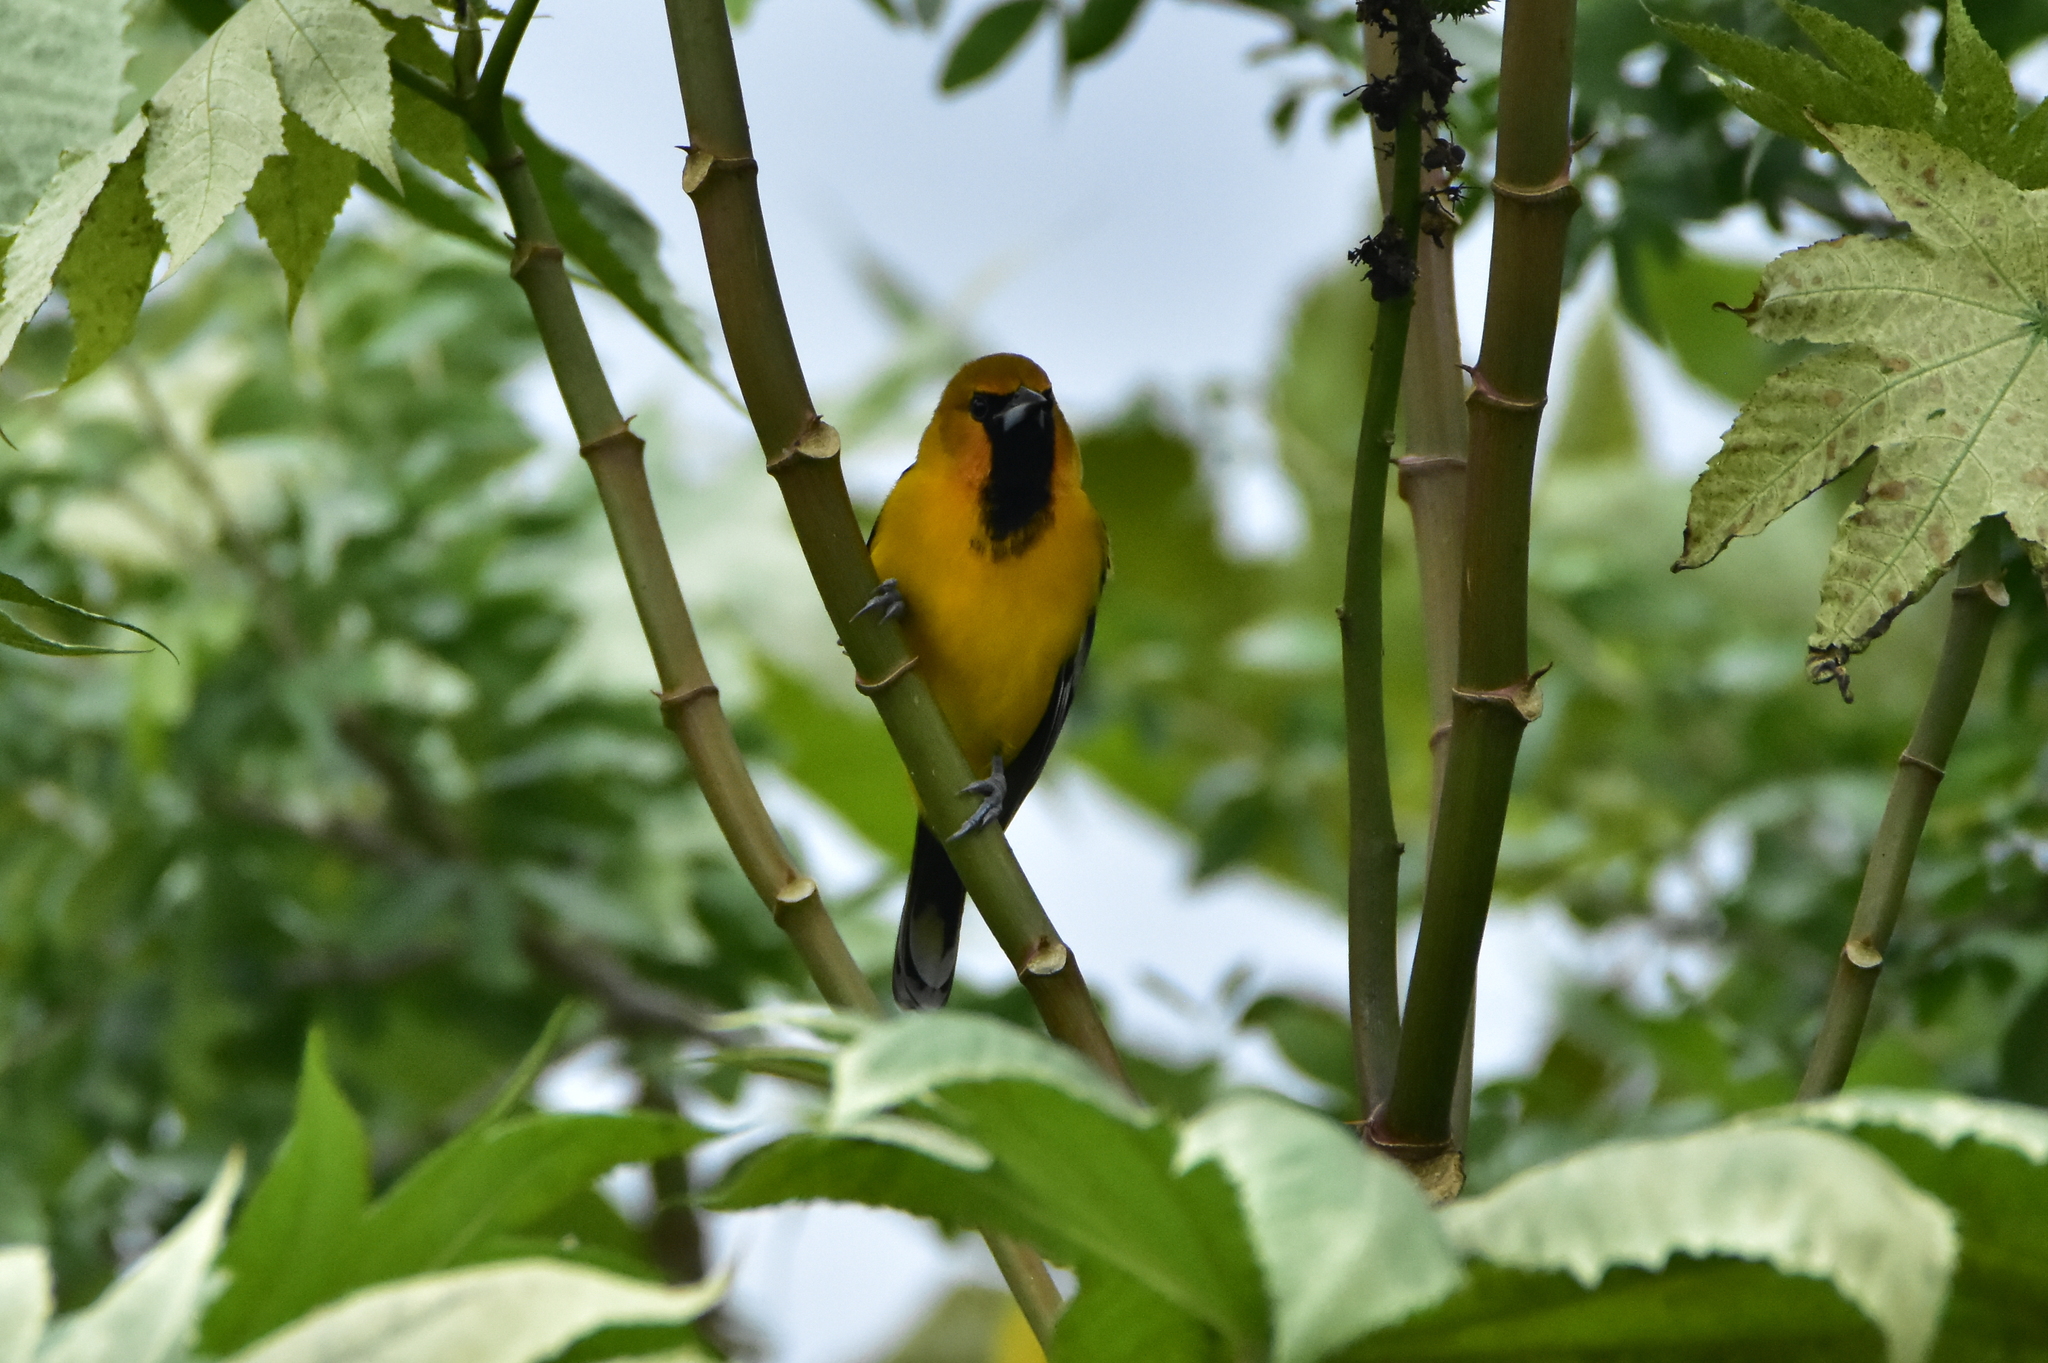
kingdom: Animalia
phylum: Chordata
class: Aves
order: Passeriformes
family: Icteridae
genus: Icterus
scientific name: Icterus pustulatus
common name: Streak-backed oriole
